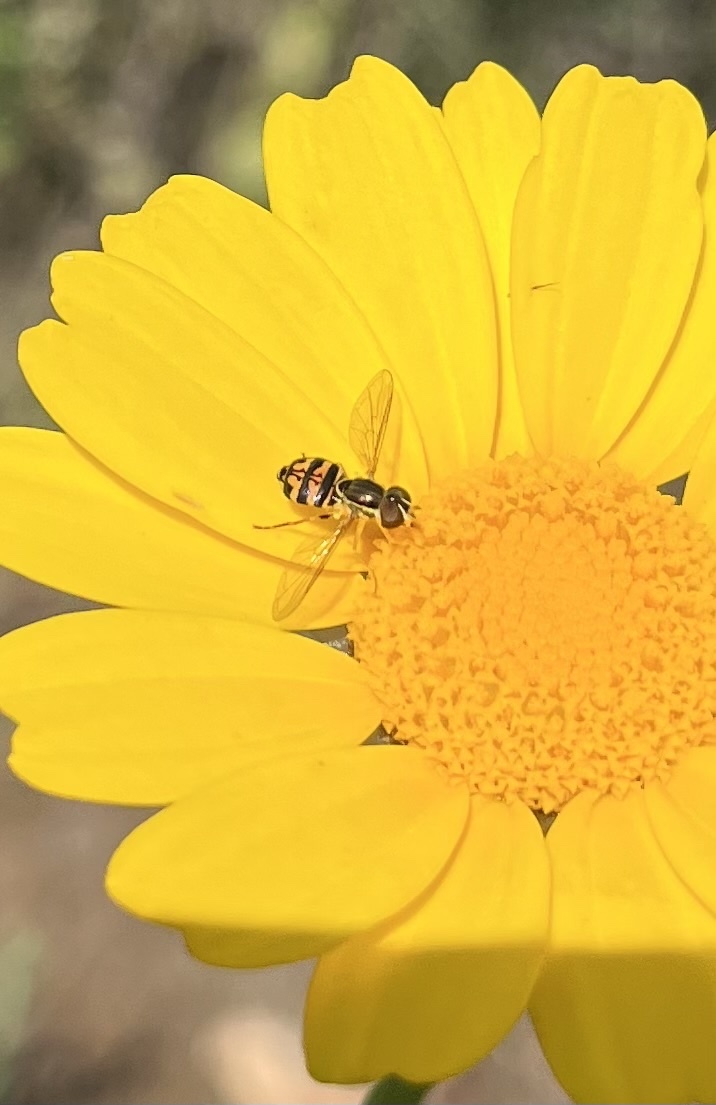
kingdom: Animalia
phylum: Arthropoda
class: Insecta
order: Diptera
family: Syrphidae
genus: Toxomerus
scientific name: Toxomerus occidentalis
